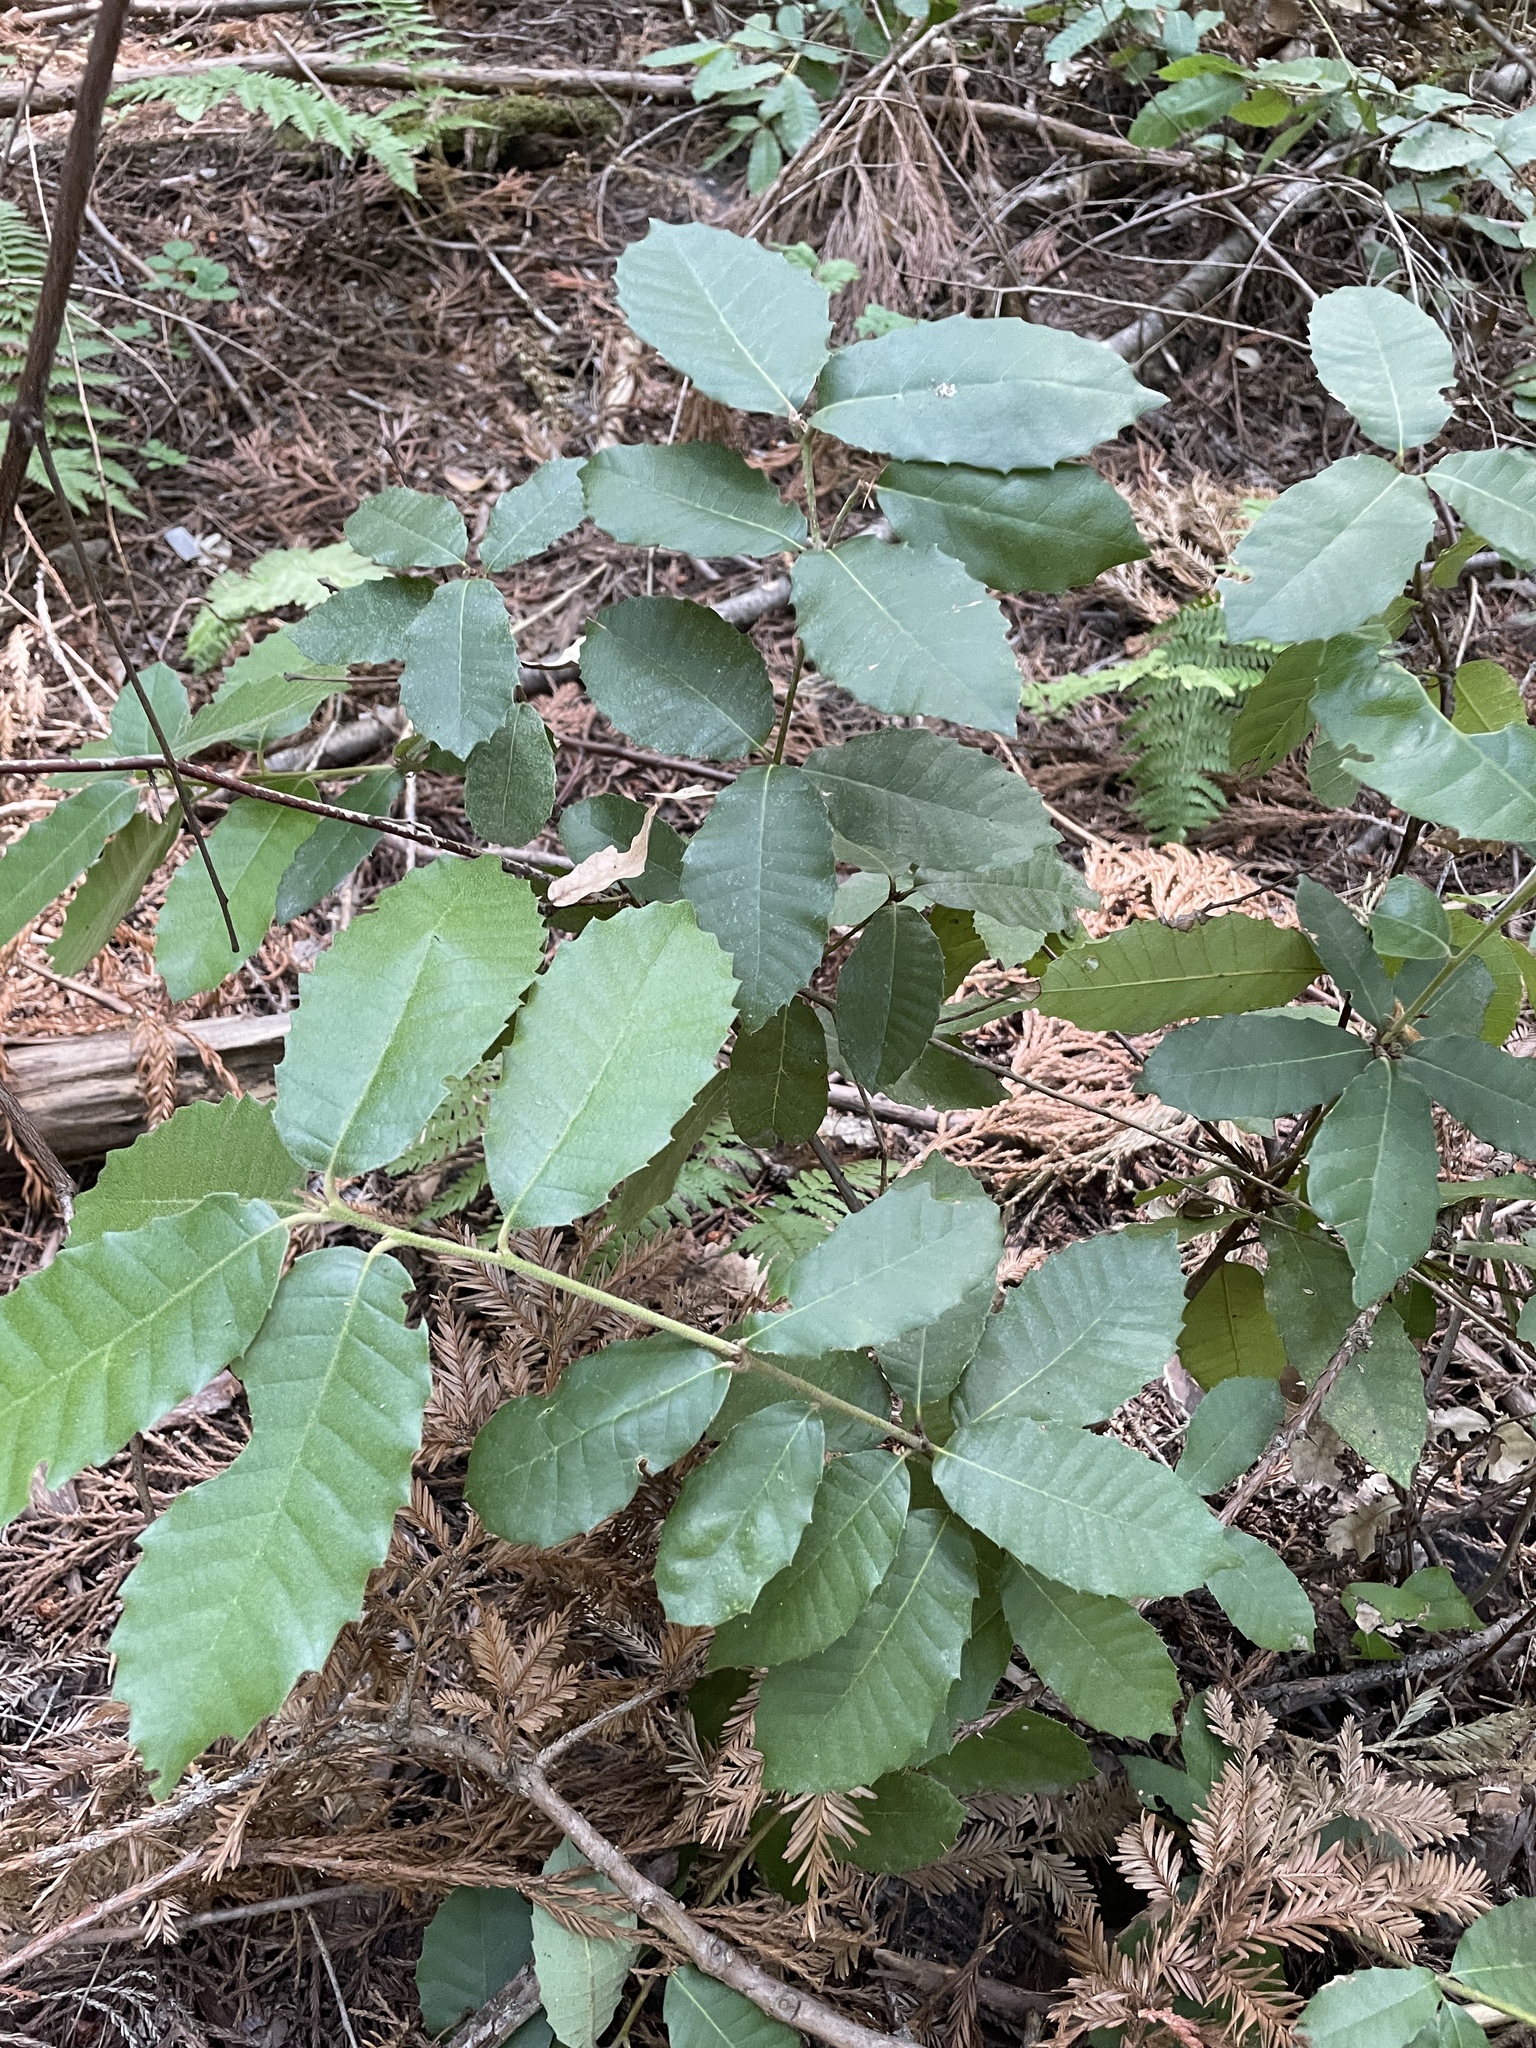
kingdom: Plantae
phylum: Tracheophyta
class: Magnoliopsida
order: Fagales
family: Fagaceae
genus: Notholithocarpus
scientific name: Notholithocarpus densiflorus
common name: Tan bark oak
